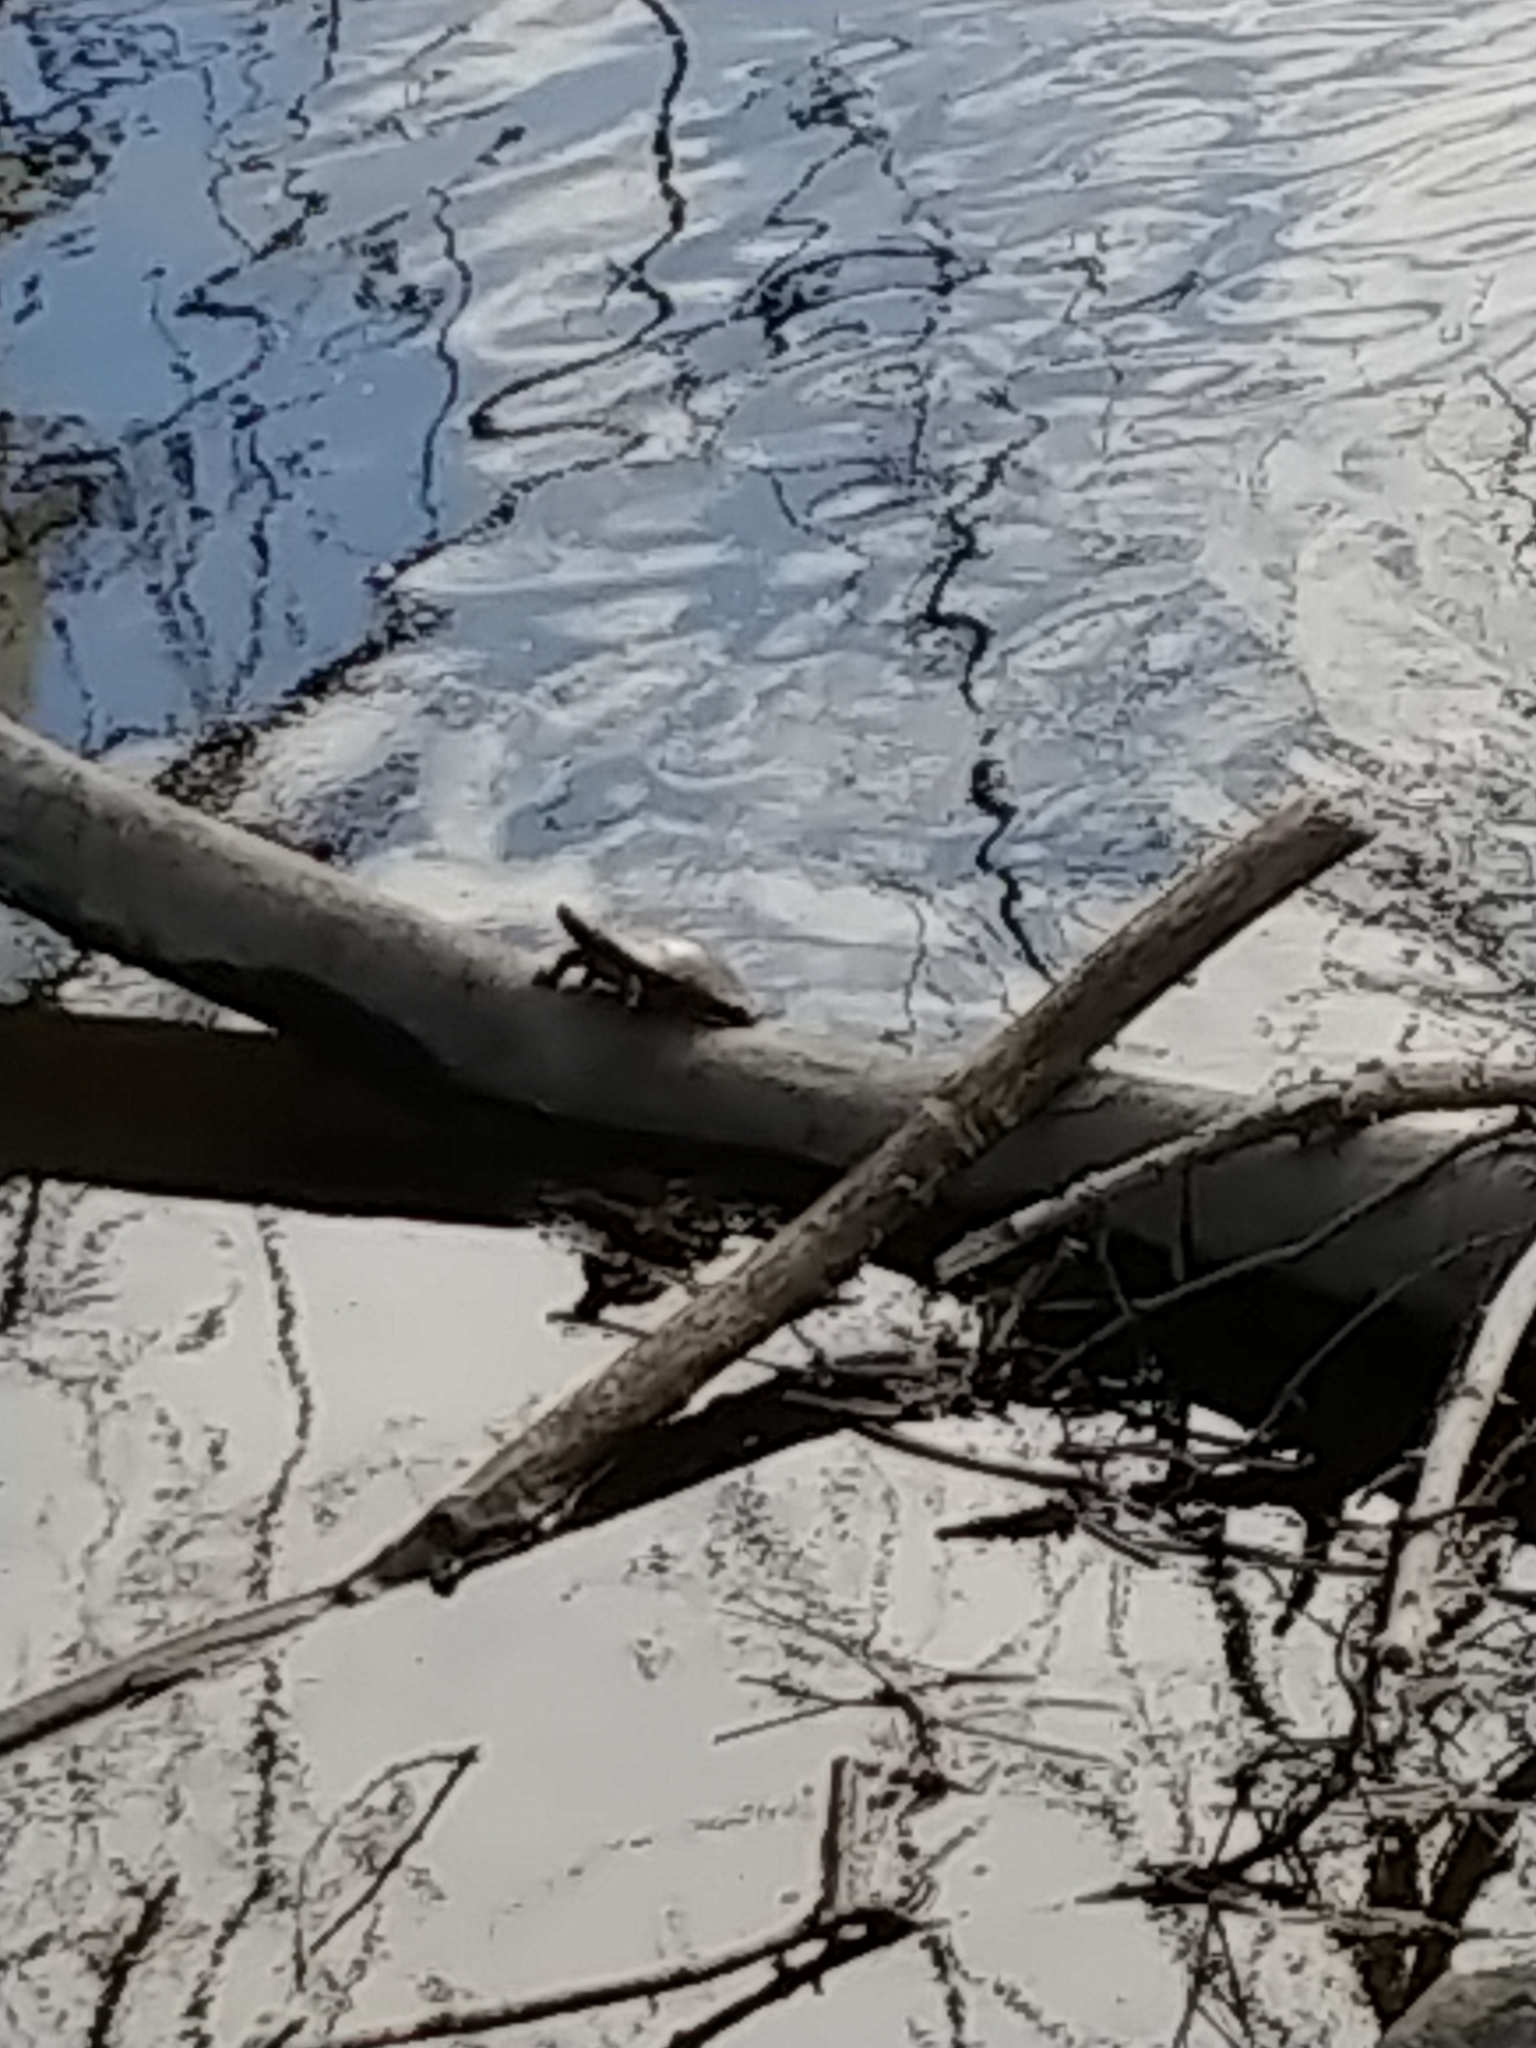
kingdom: Animalia
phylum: Chordata
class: Testudines
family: Emydidae
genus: Chrysemys
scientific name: Chrysemys picta
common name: Painted turtle
